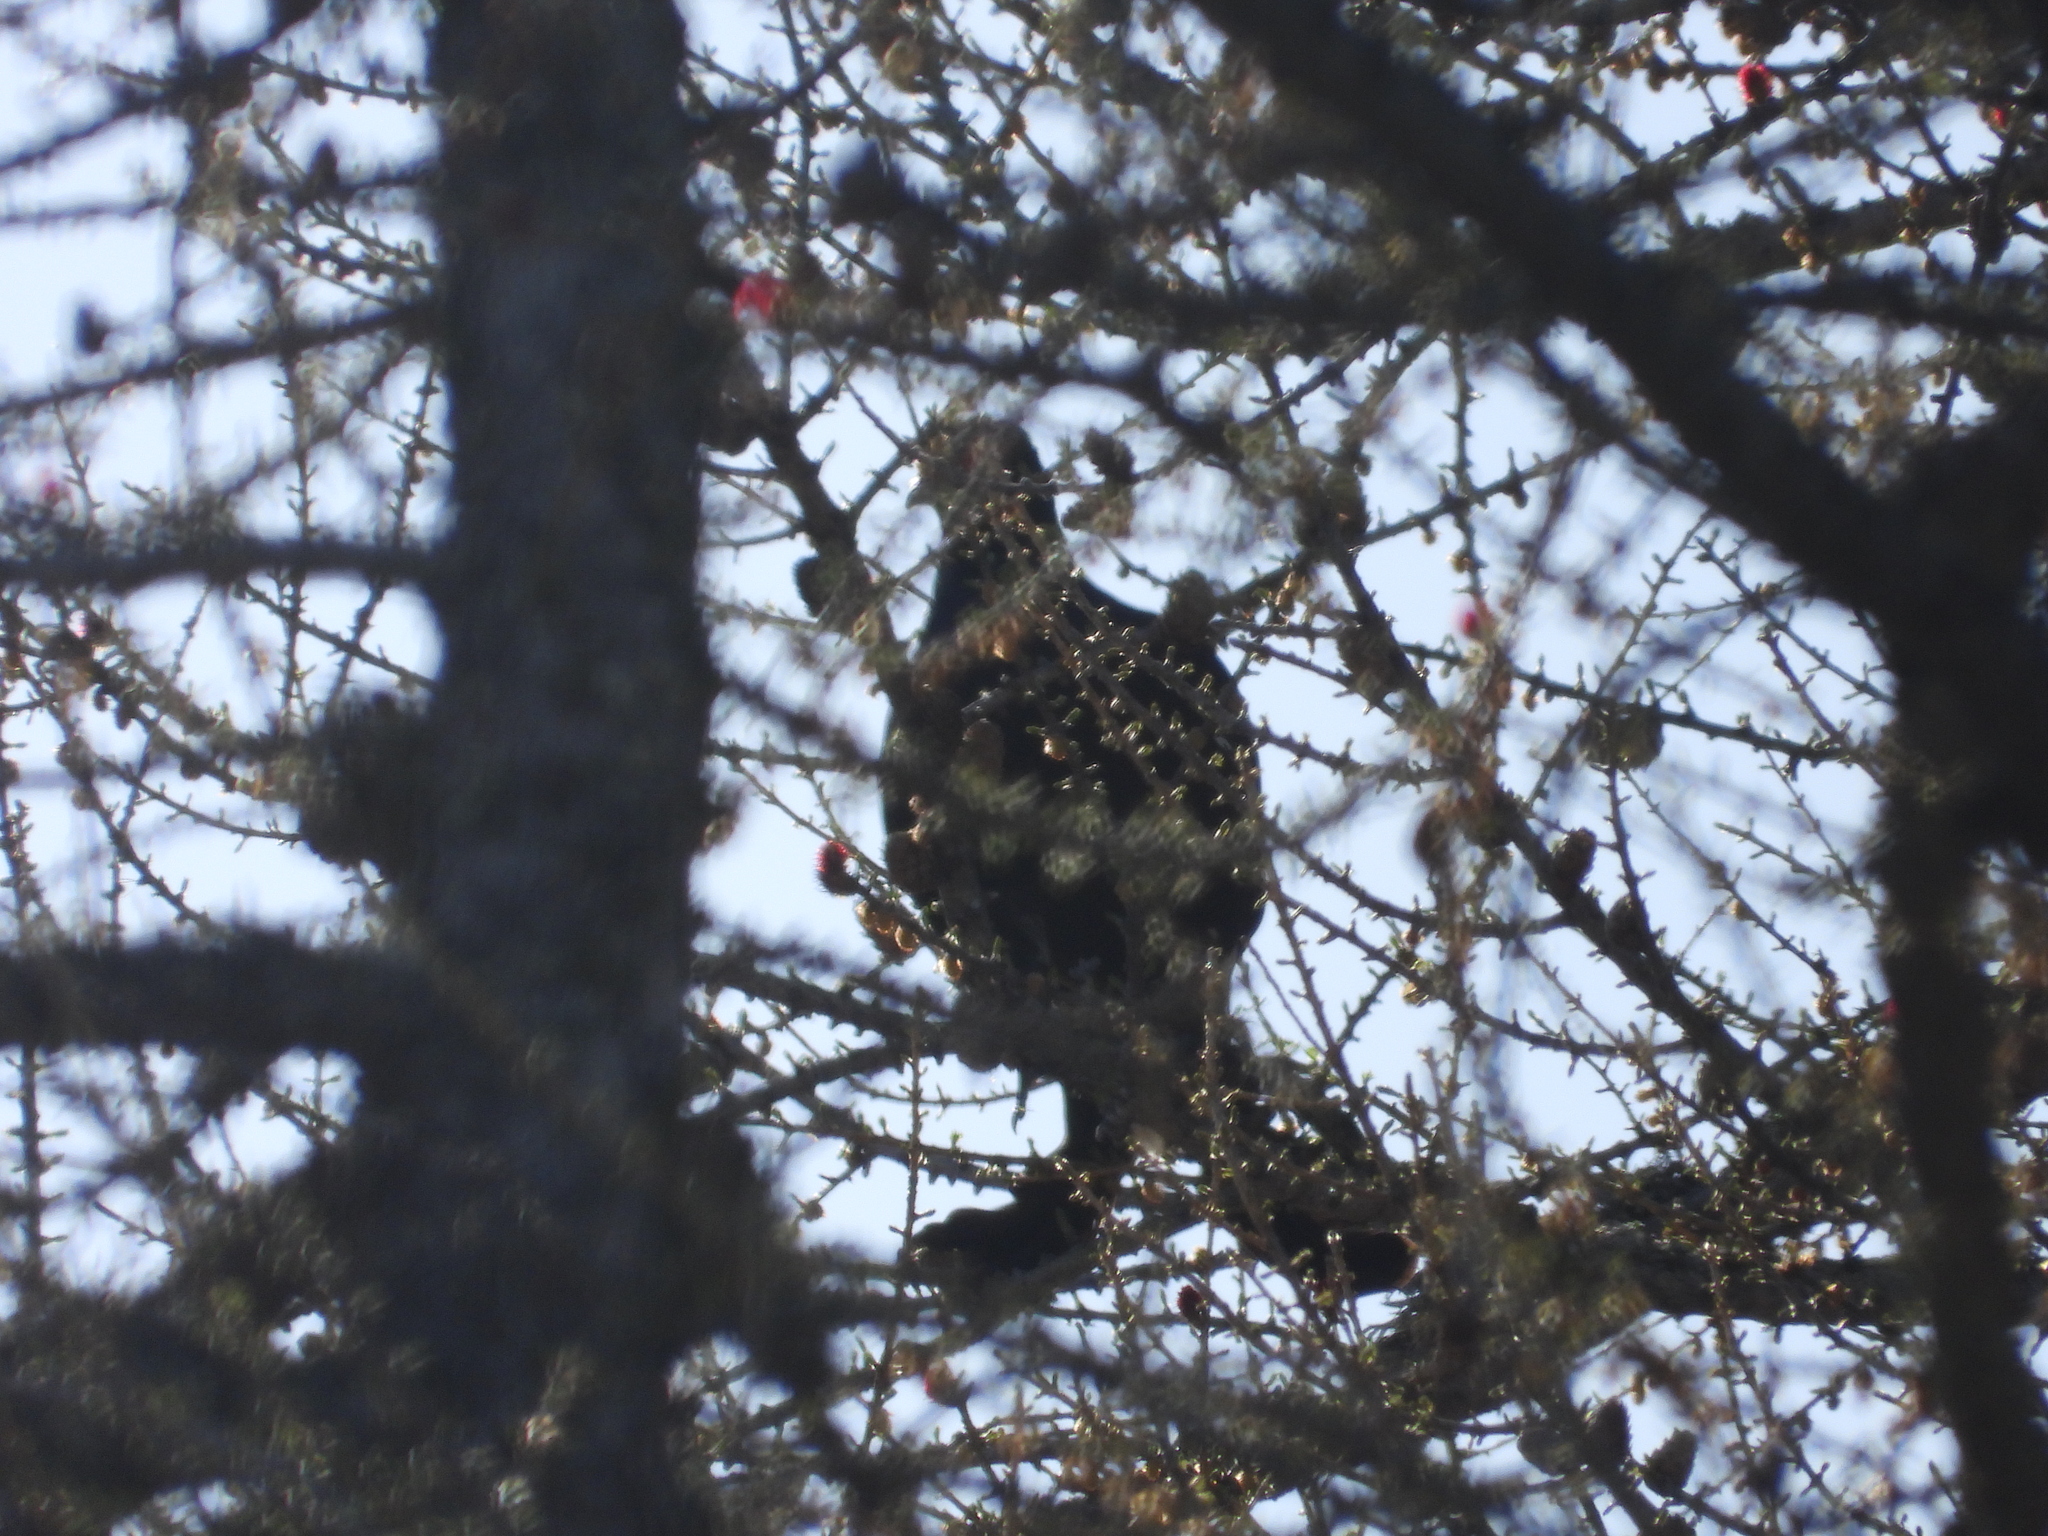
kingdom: Animalia
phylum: Chordata
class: Aves
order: Galliformes
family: Phasianidae
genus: Lyrurus
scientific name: Lyrurus tetrix
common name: Black grouse
